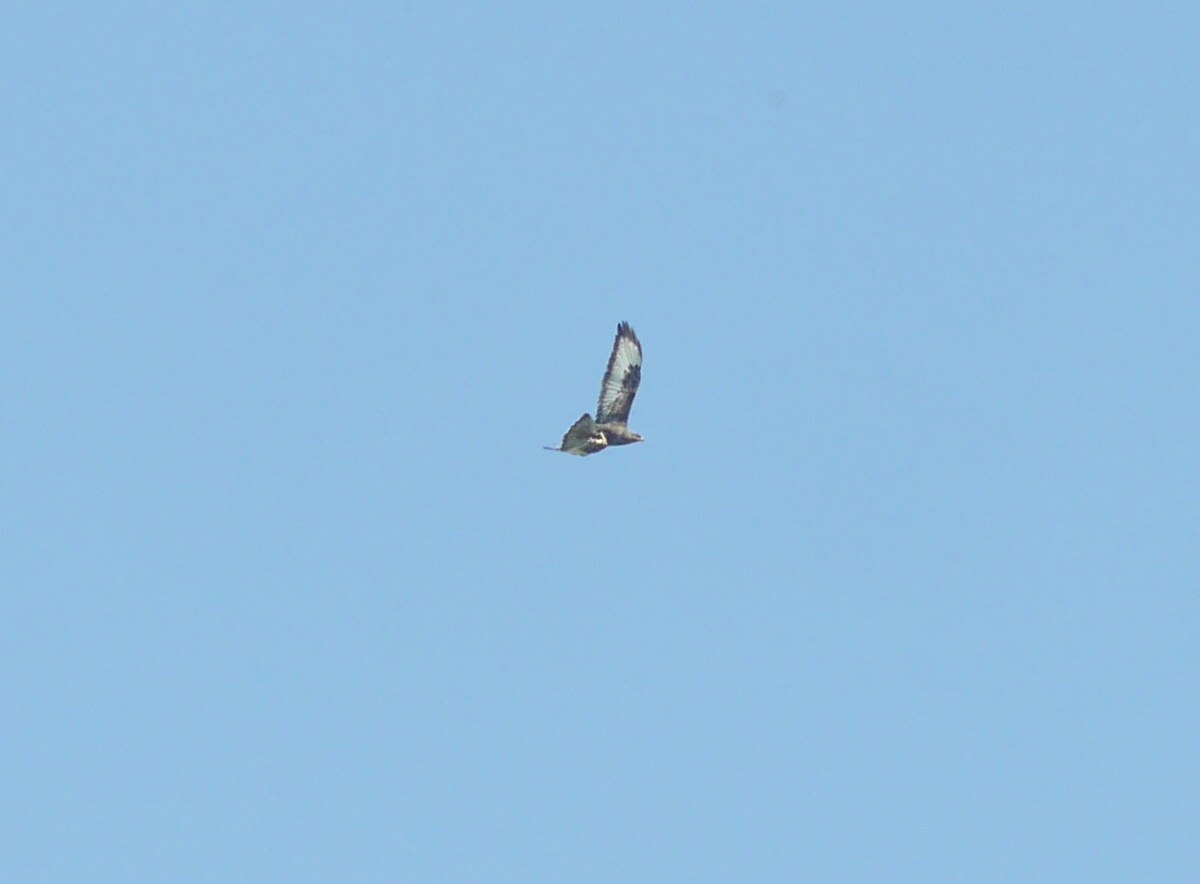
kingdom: Animalia
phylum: Chordata
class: Aves
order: Accipitriformes
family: Accipitridae
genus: Buteo
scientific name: Buteo buteo
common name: Common buzzard
